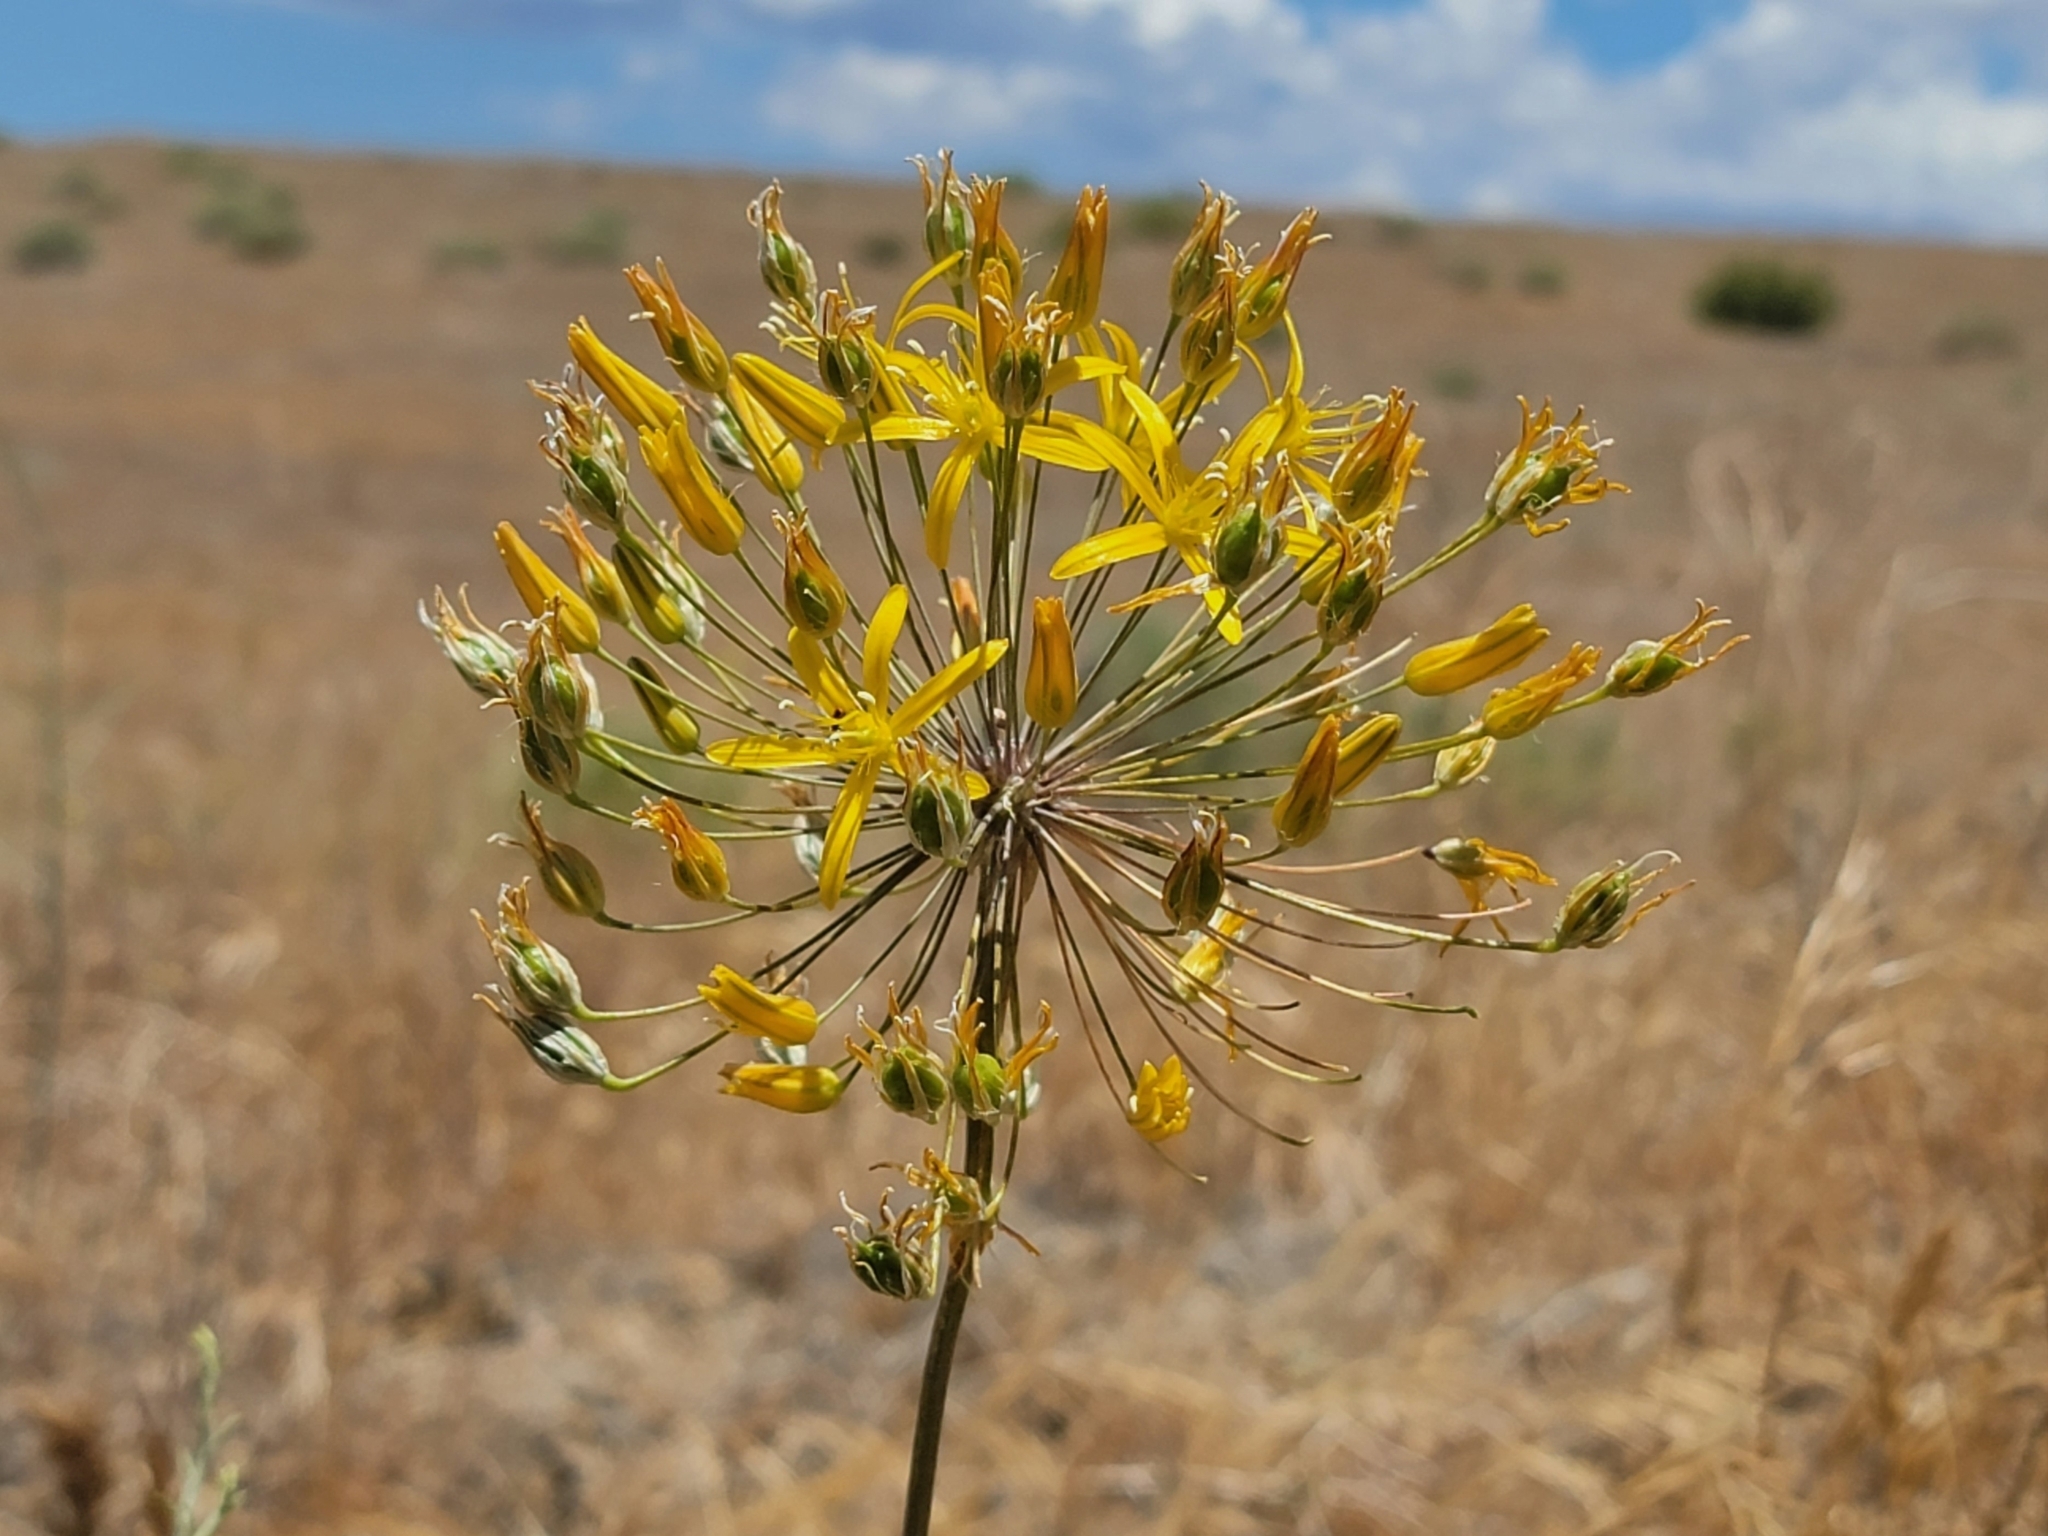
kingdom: Plantae
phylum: Tracheophyta
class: Liliopsida
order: Asparagales
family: Asparagaceae
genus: Bloomeria
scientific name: Bloomeria crocea
